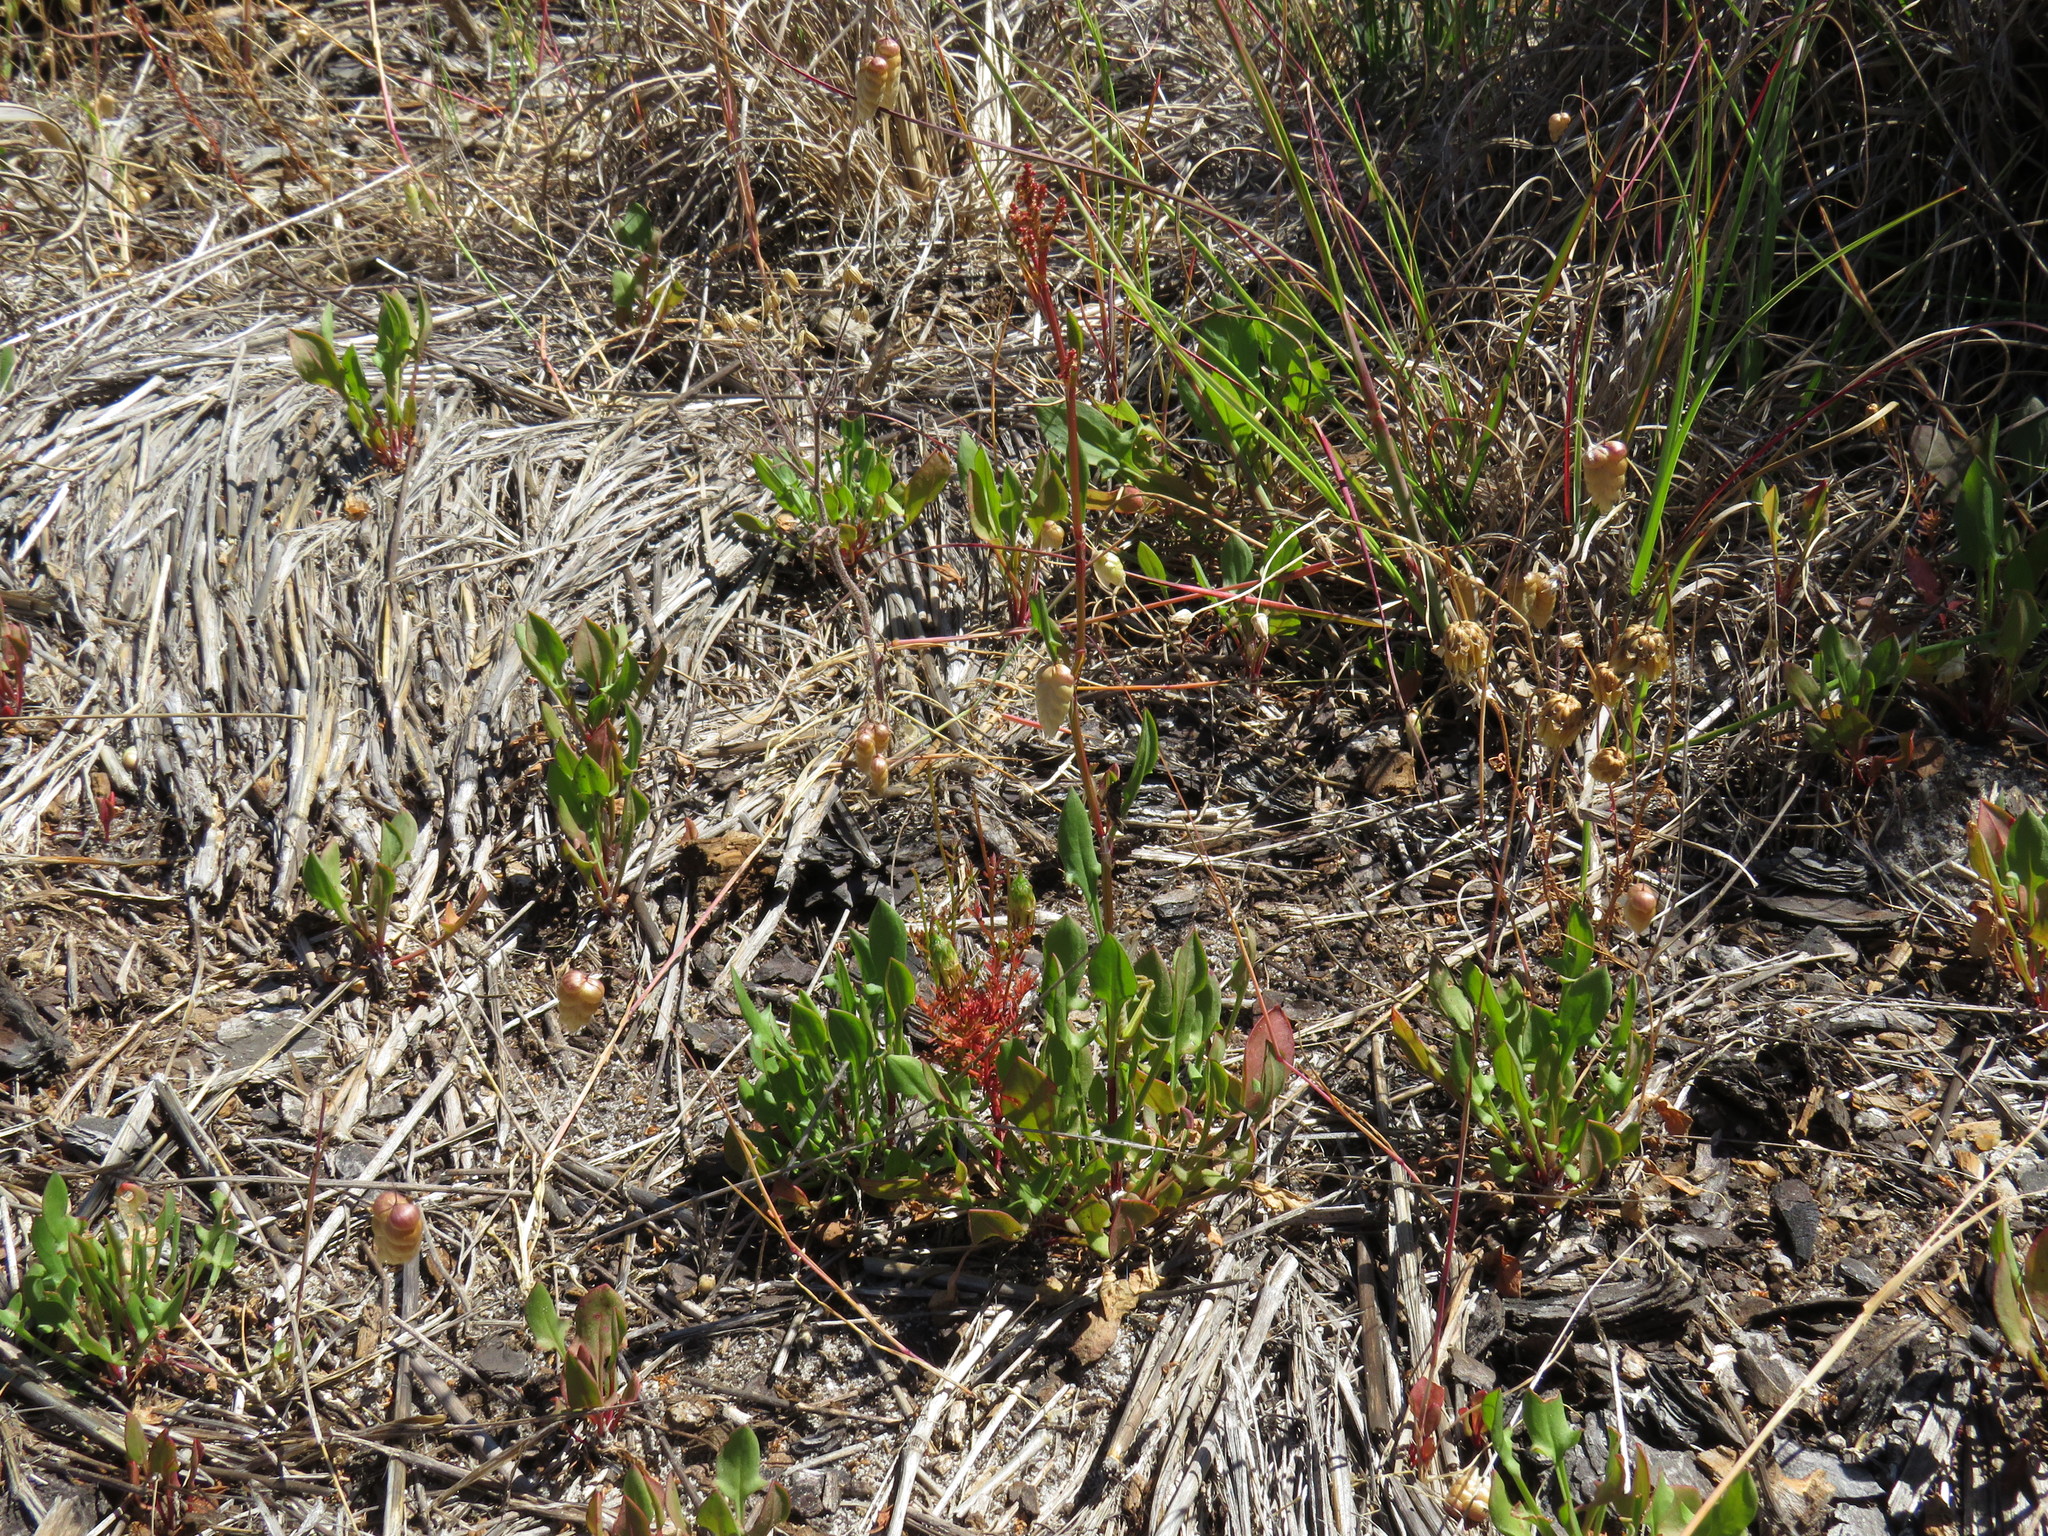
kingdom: Plantae
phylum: Tracheophyta
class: Magnoliopsida
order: Caryophyllales
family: Polygonaceae
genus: Rumex
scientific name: Rumex acetosella
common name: Common sheep sorrel
